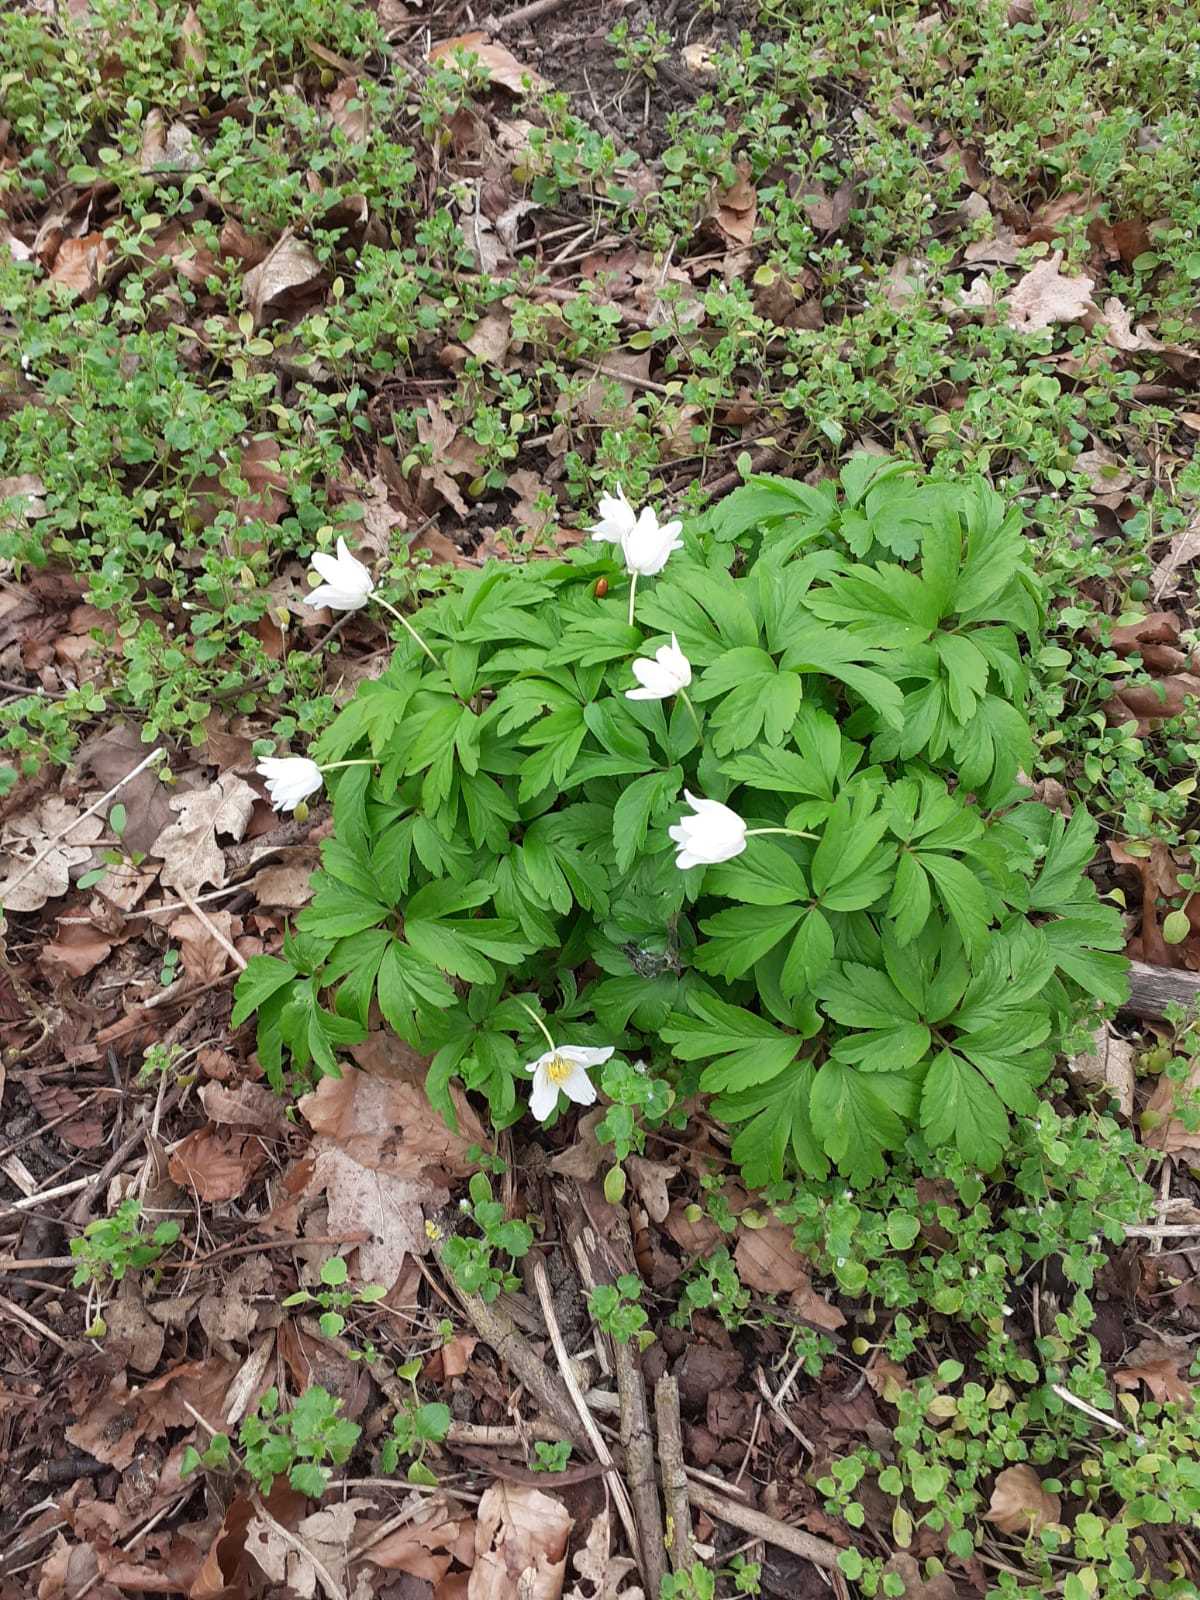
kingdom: Plantae
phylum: Tracheophyta
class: Magnoliopsida
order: Ranunculales
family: Ranunculaceae
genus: Anemone
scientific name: Anemone nemorosa
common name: Wood anemone
